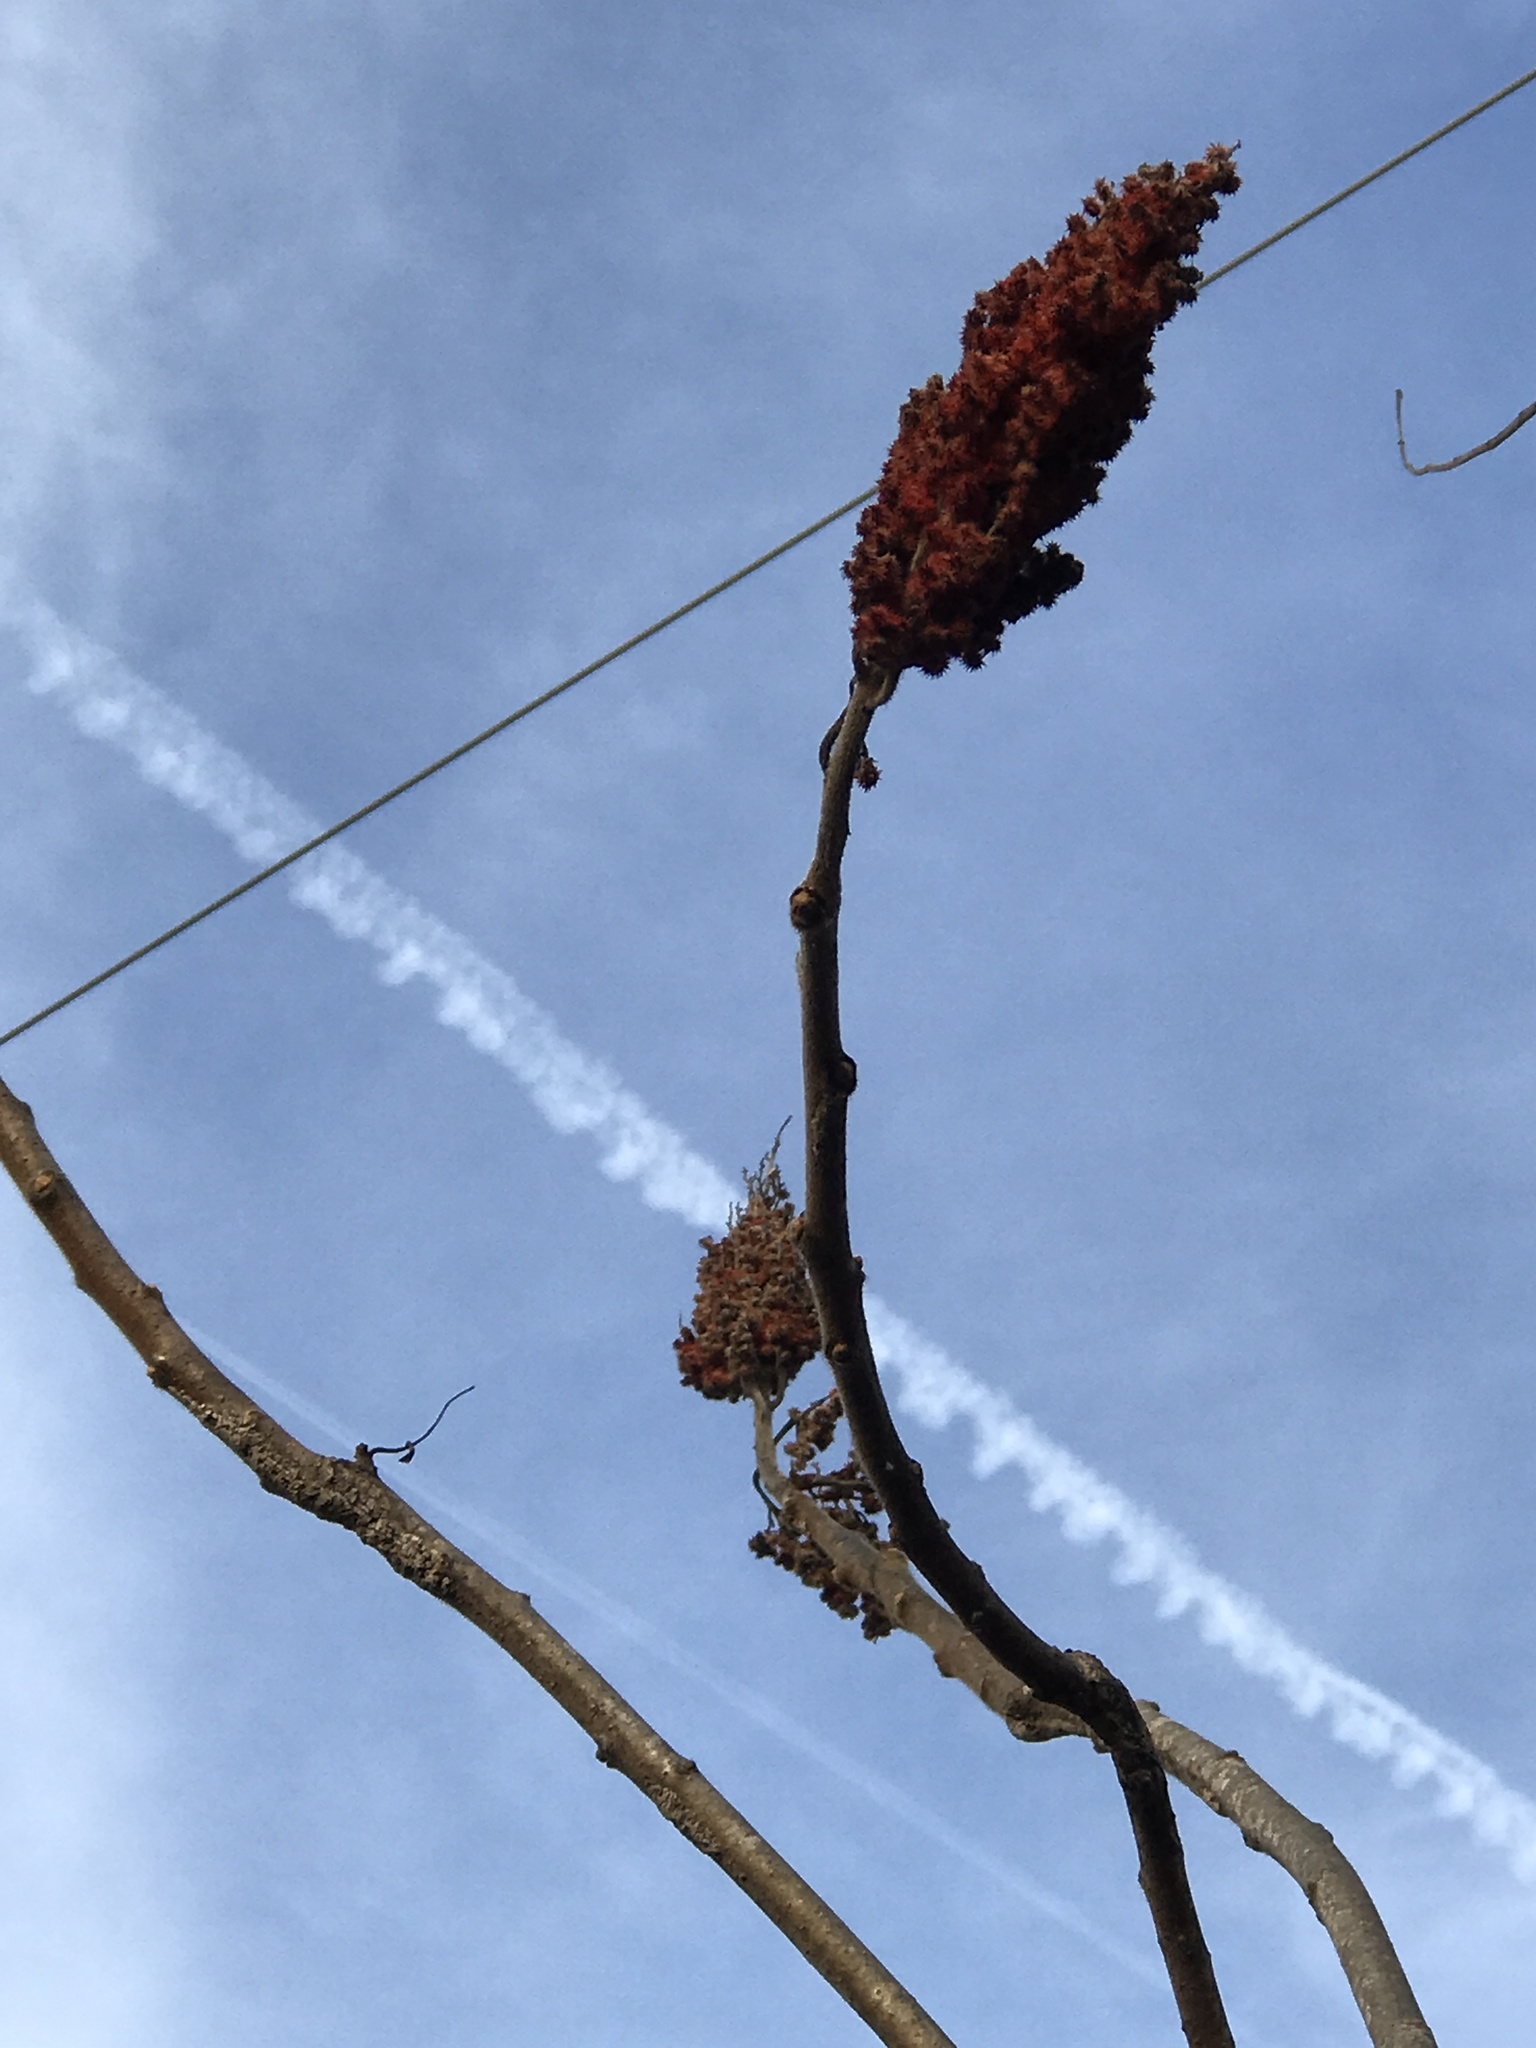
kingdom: Plantae
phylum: Tracheophyta
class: Magnoliopsida
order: Sapindales
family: Anacardiaceae
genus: Rhus
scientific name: Rhus typhina
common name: Staghorn sumac
